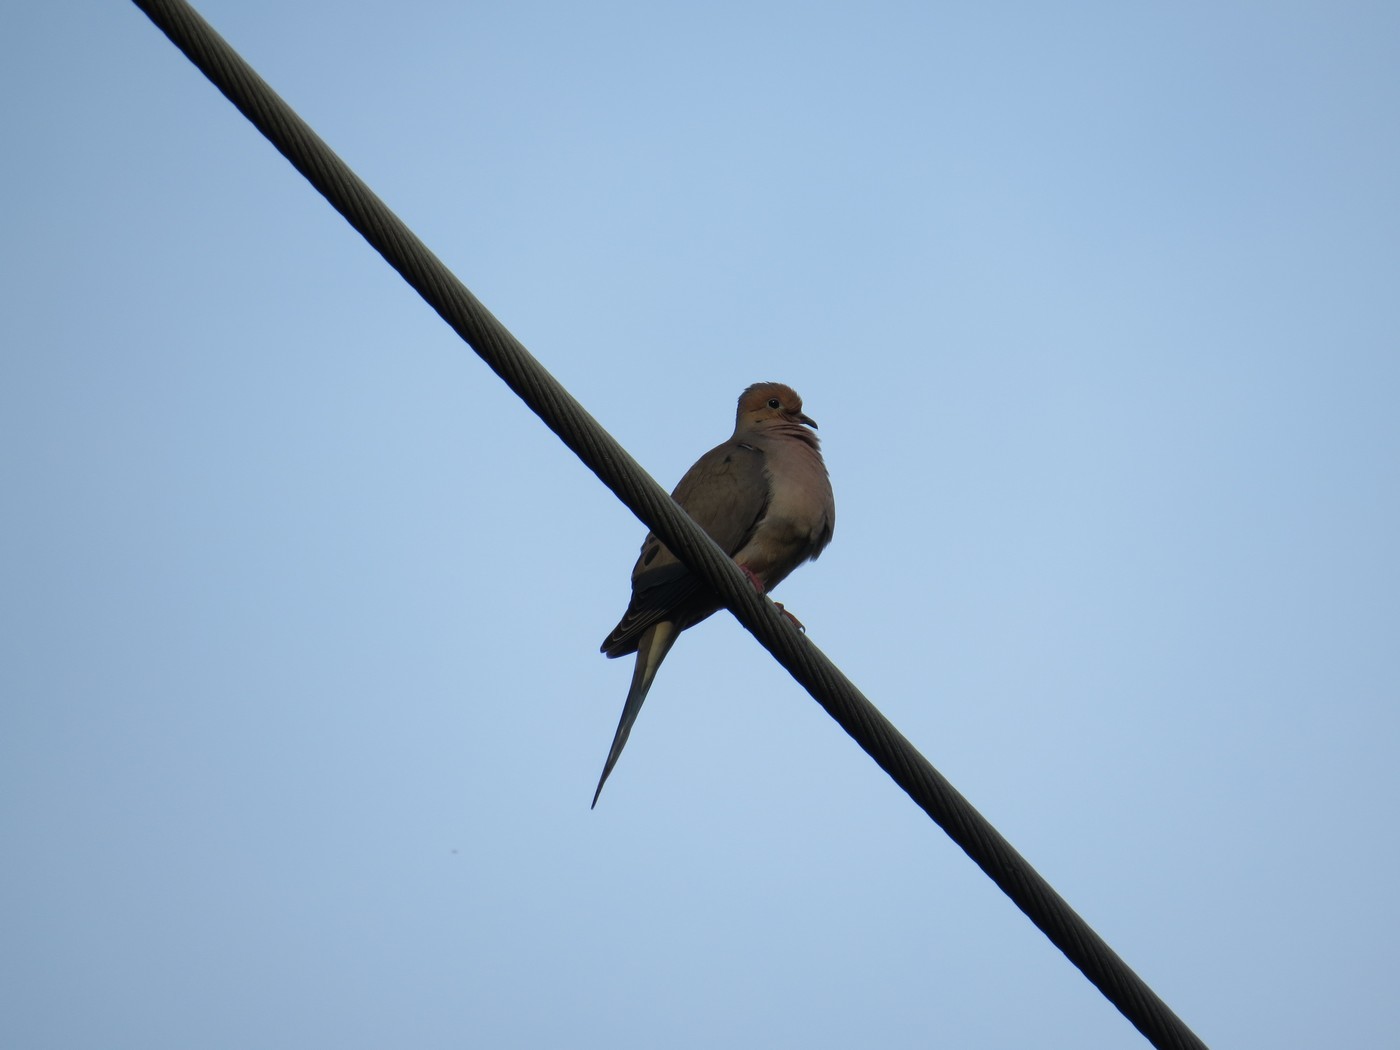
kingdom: Animalia
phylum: Chordata
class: Aves
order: Columbiformes
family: Columbidae
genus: Zenaida
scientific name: Zenaida macroura
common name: Mourning dove
